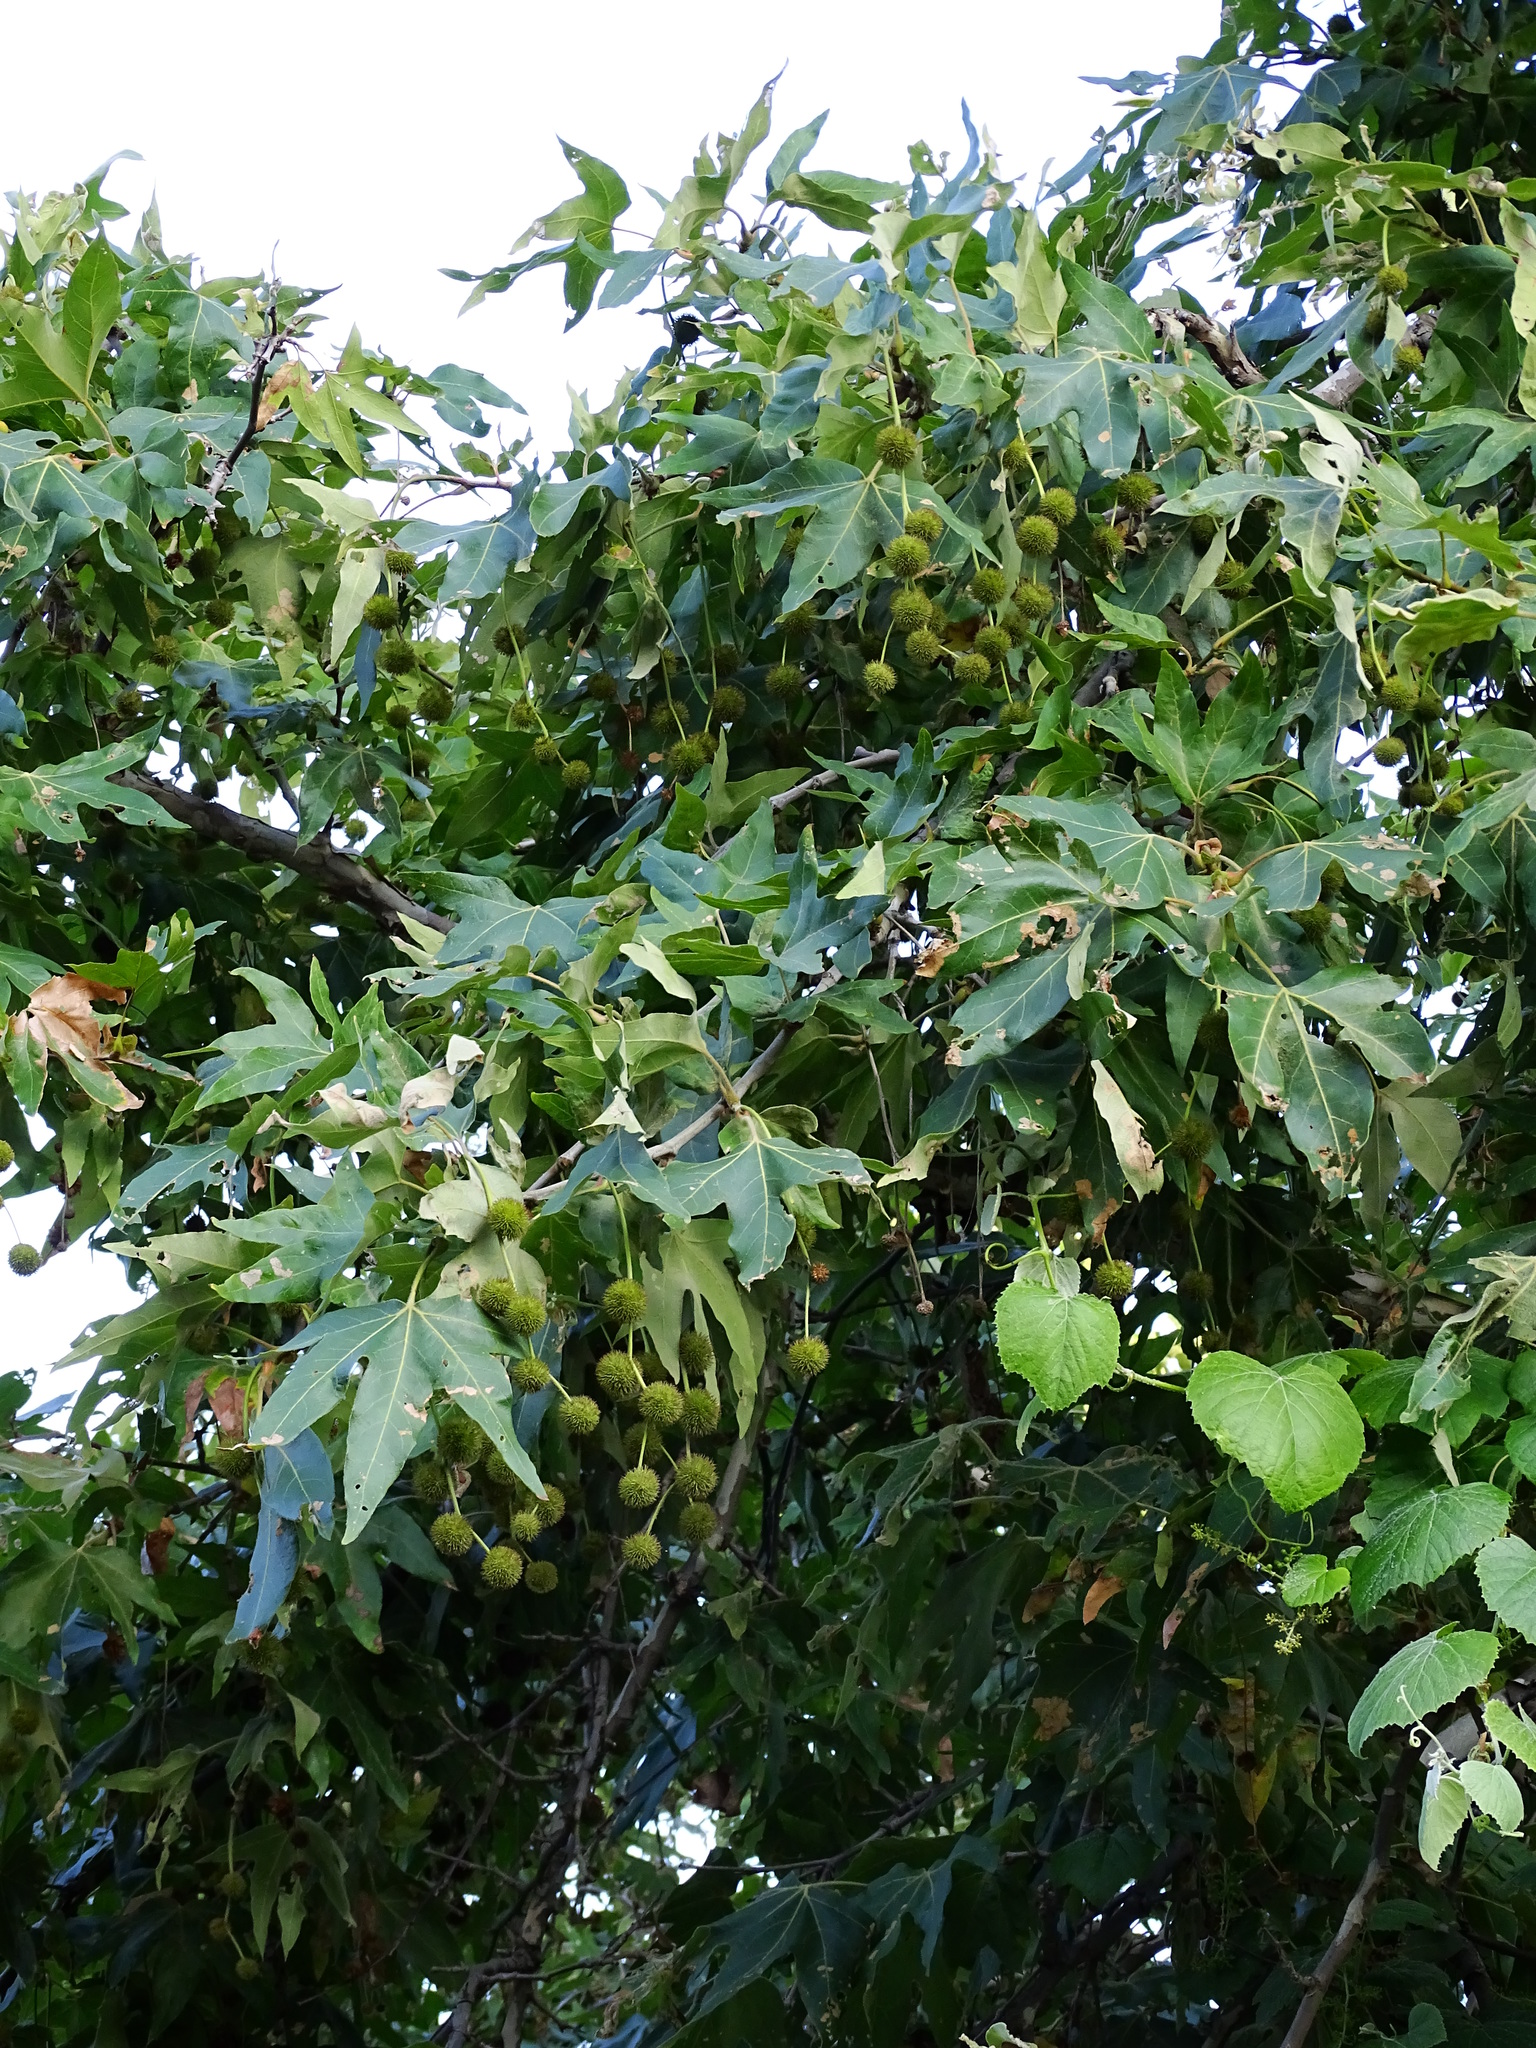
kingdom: Plantae
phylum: Tracheophyta
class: Magnoliopsida
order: Proteales
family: Platanaceae
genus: Platanus
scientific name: Platanus racemosa
